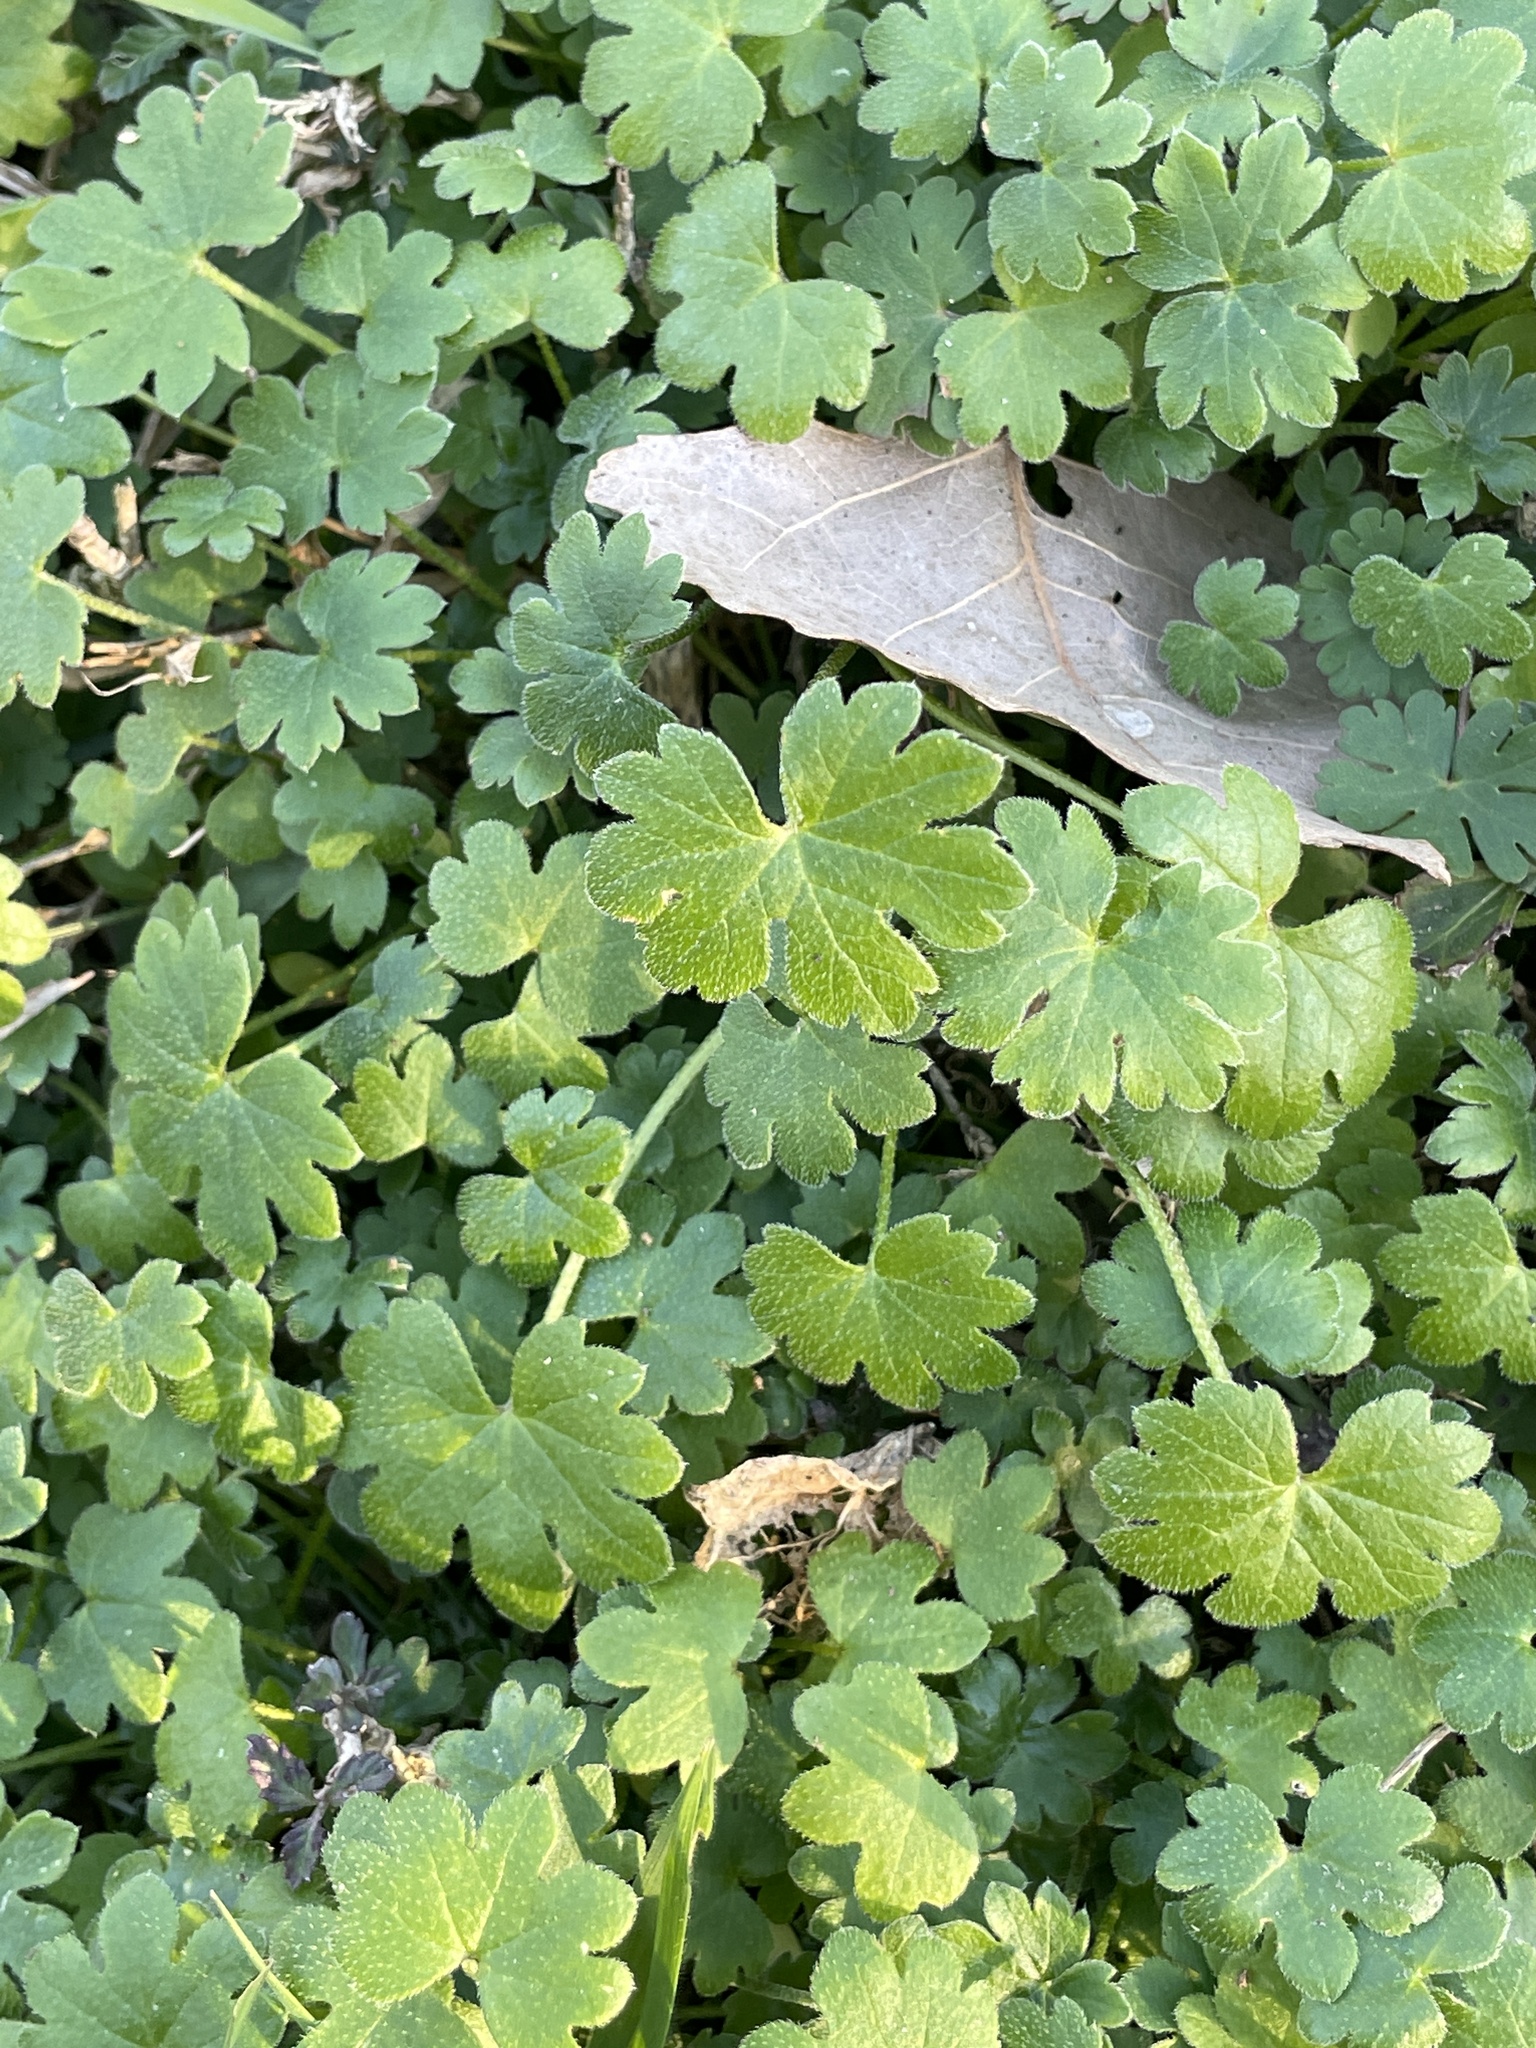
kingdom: Plantae
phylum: Tracheophyta
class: Magnoliopsida
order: Apiales
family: Apiaceae
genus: Bowlesia
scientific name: Bowlesia incana
